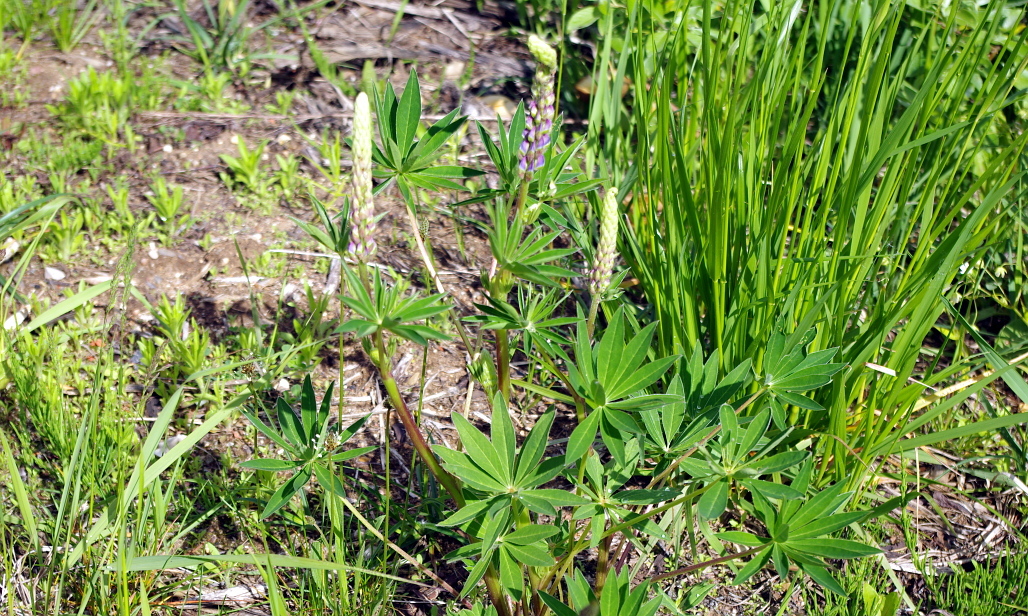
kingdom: Plantae
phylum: Tracheophyta
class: Magnoliopsida
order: Fabales
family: Fabaceae
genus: Lupinus
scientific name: Lupinus polyphyllus
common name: Garden lupin
